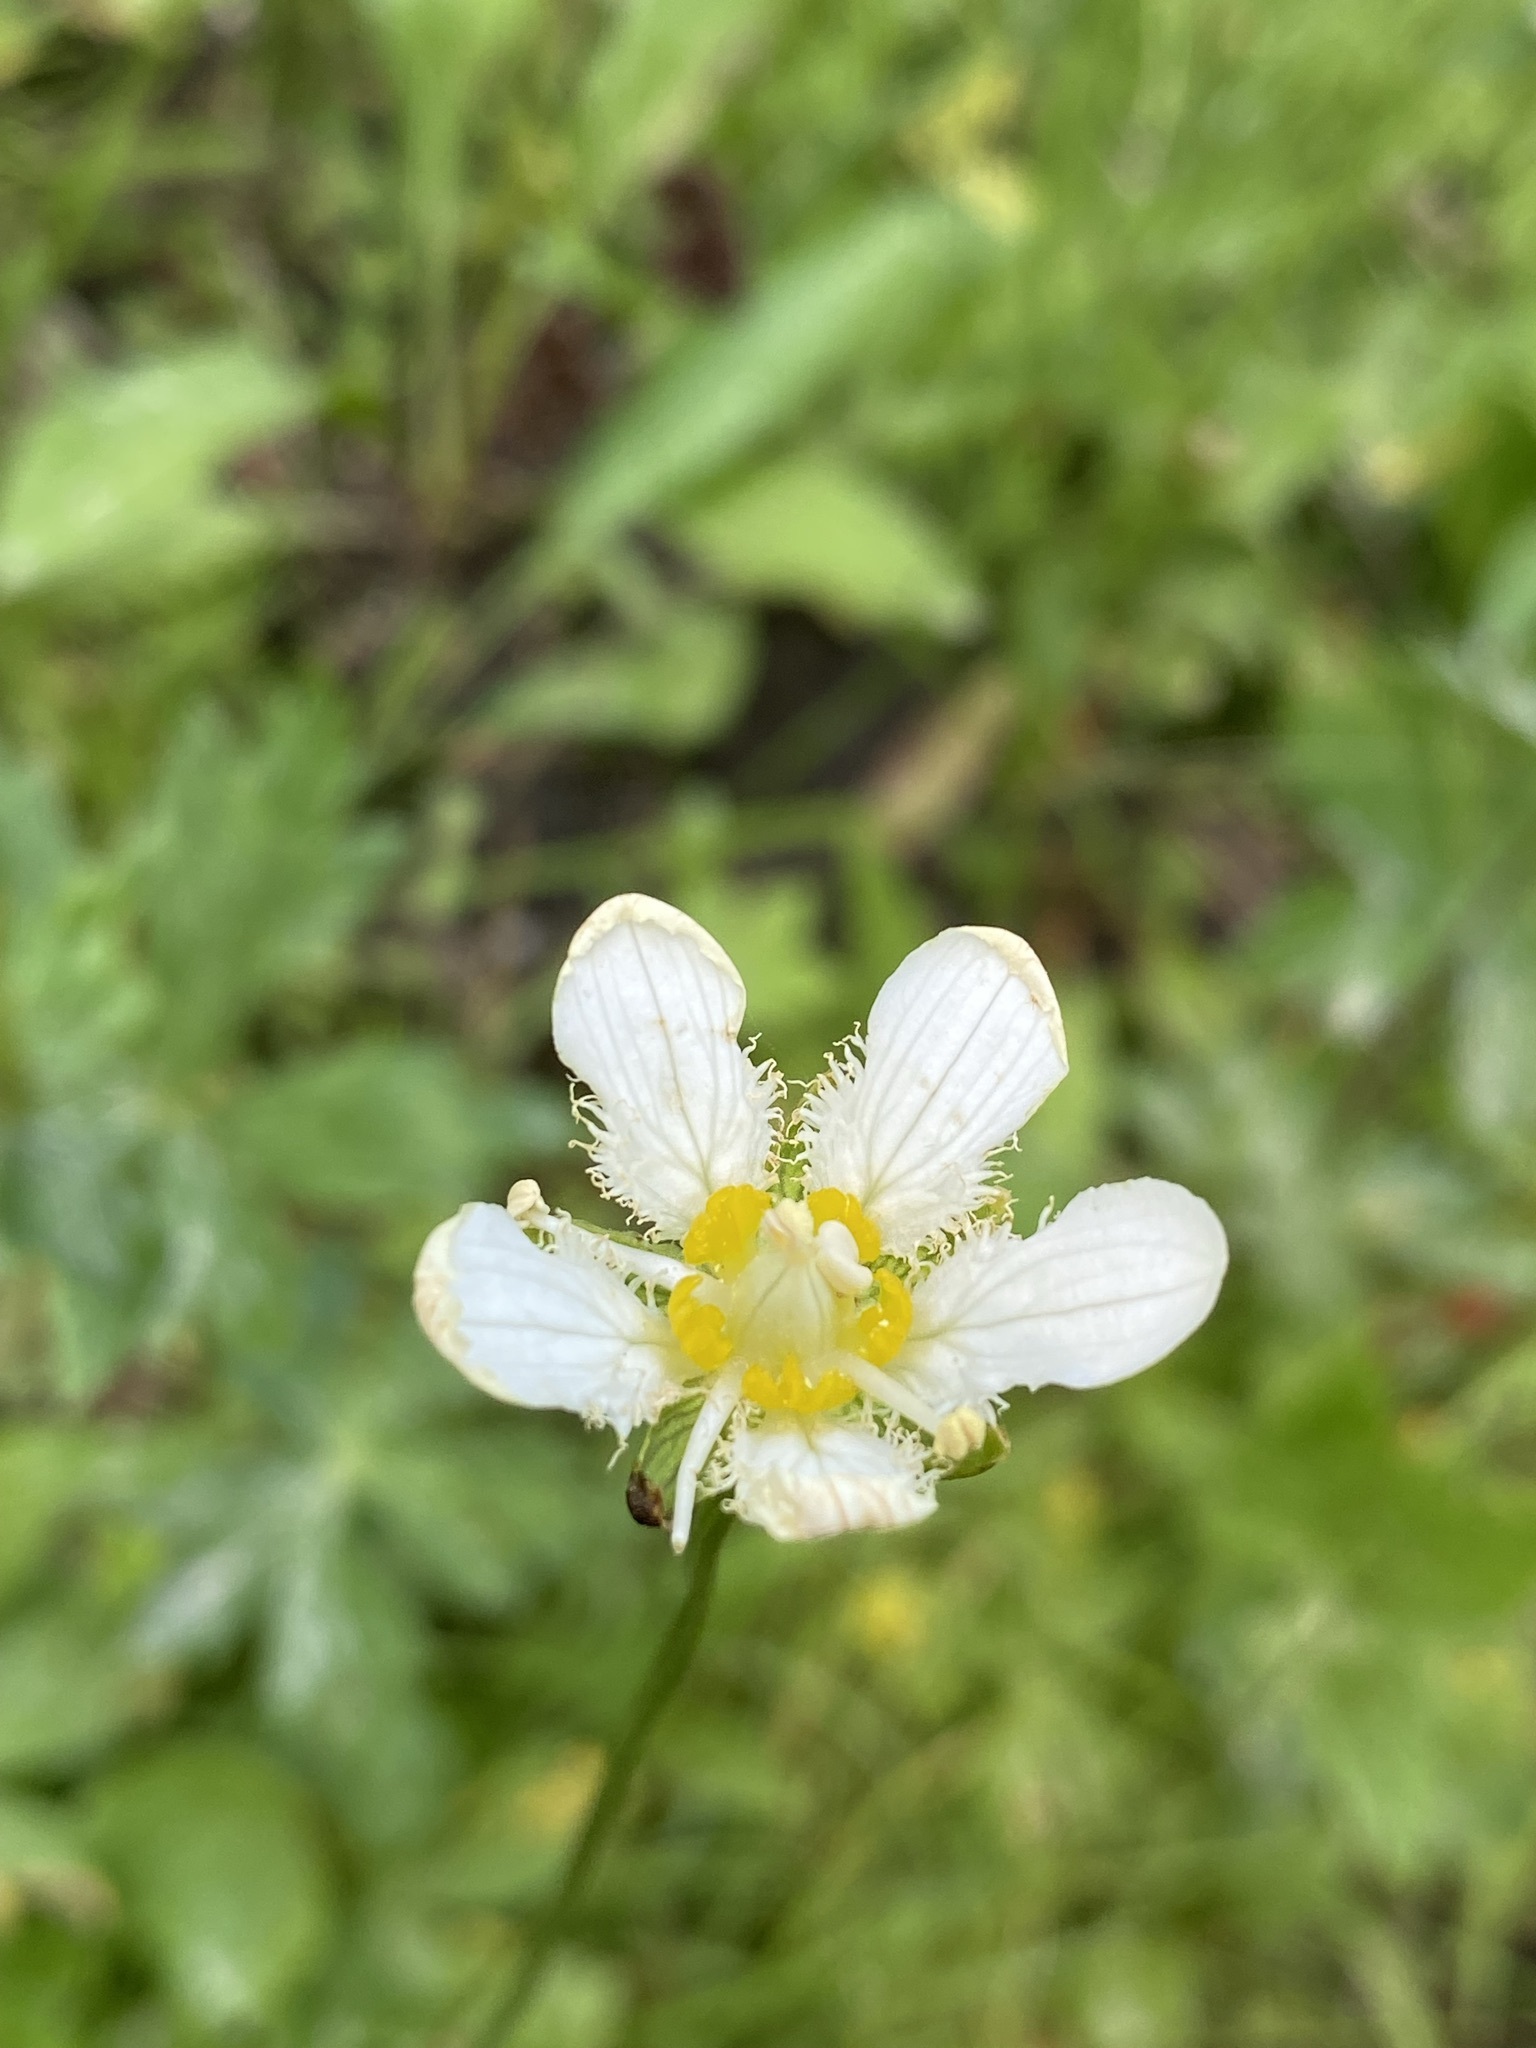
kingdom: Plantae
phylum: Tracheophyta
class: Magnoliopsida
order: Celastrales
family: Parnassiaceae
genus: Parnassia
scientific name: Parnassia fimbriata
